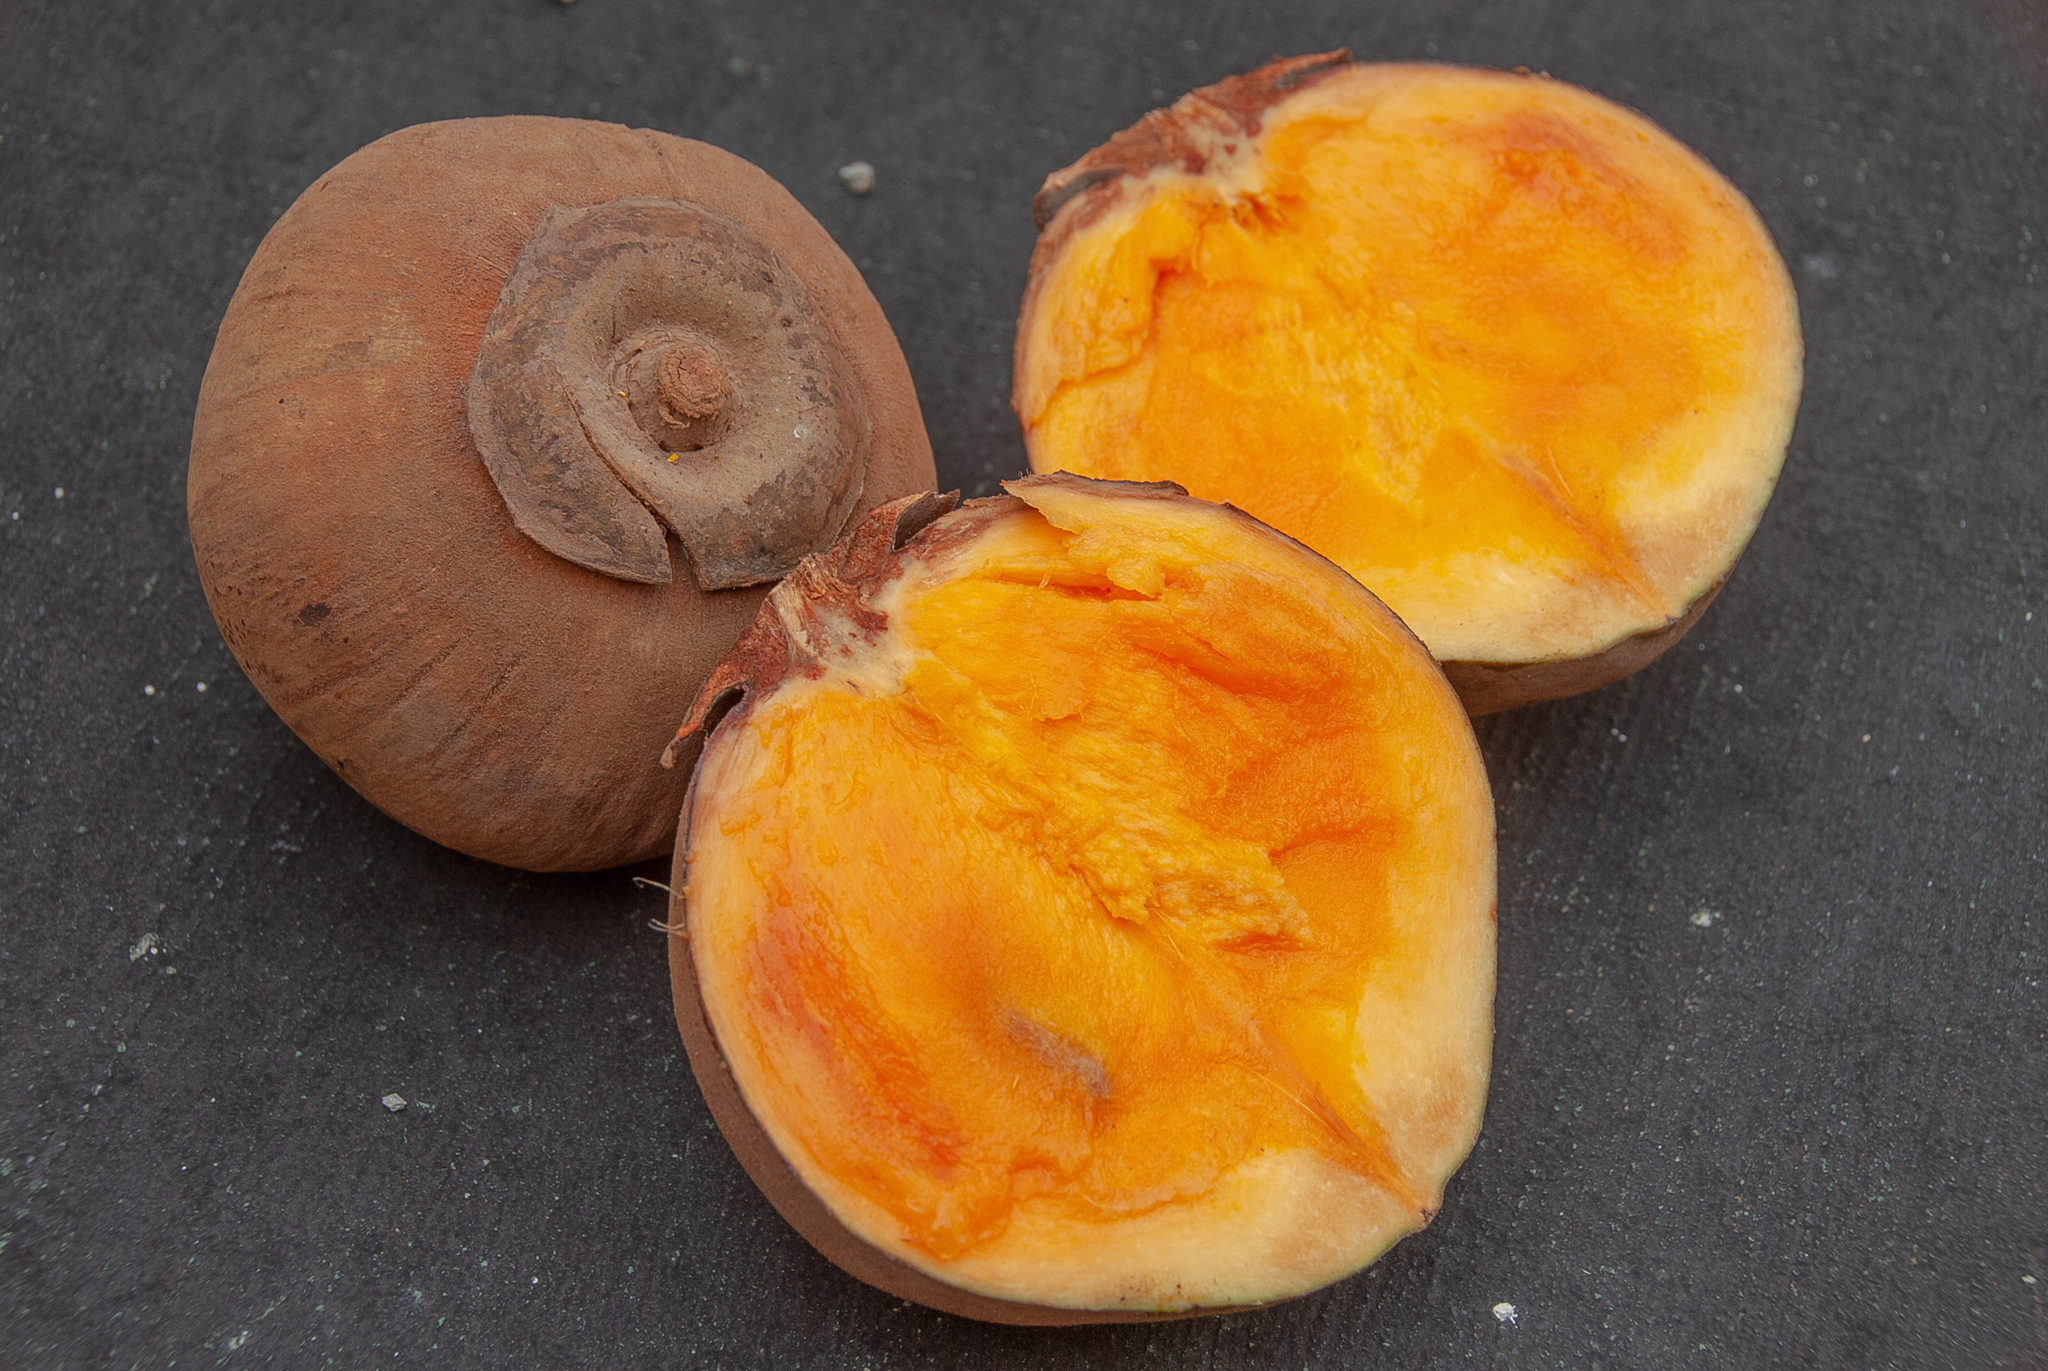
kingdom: Plantae
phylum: Tracheophyta
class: Magnoliopsida
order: Malvales
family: Malvaceae
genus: Matisia
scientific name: Matisia cordata
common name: South american sapote
